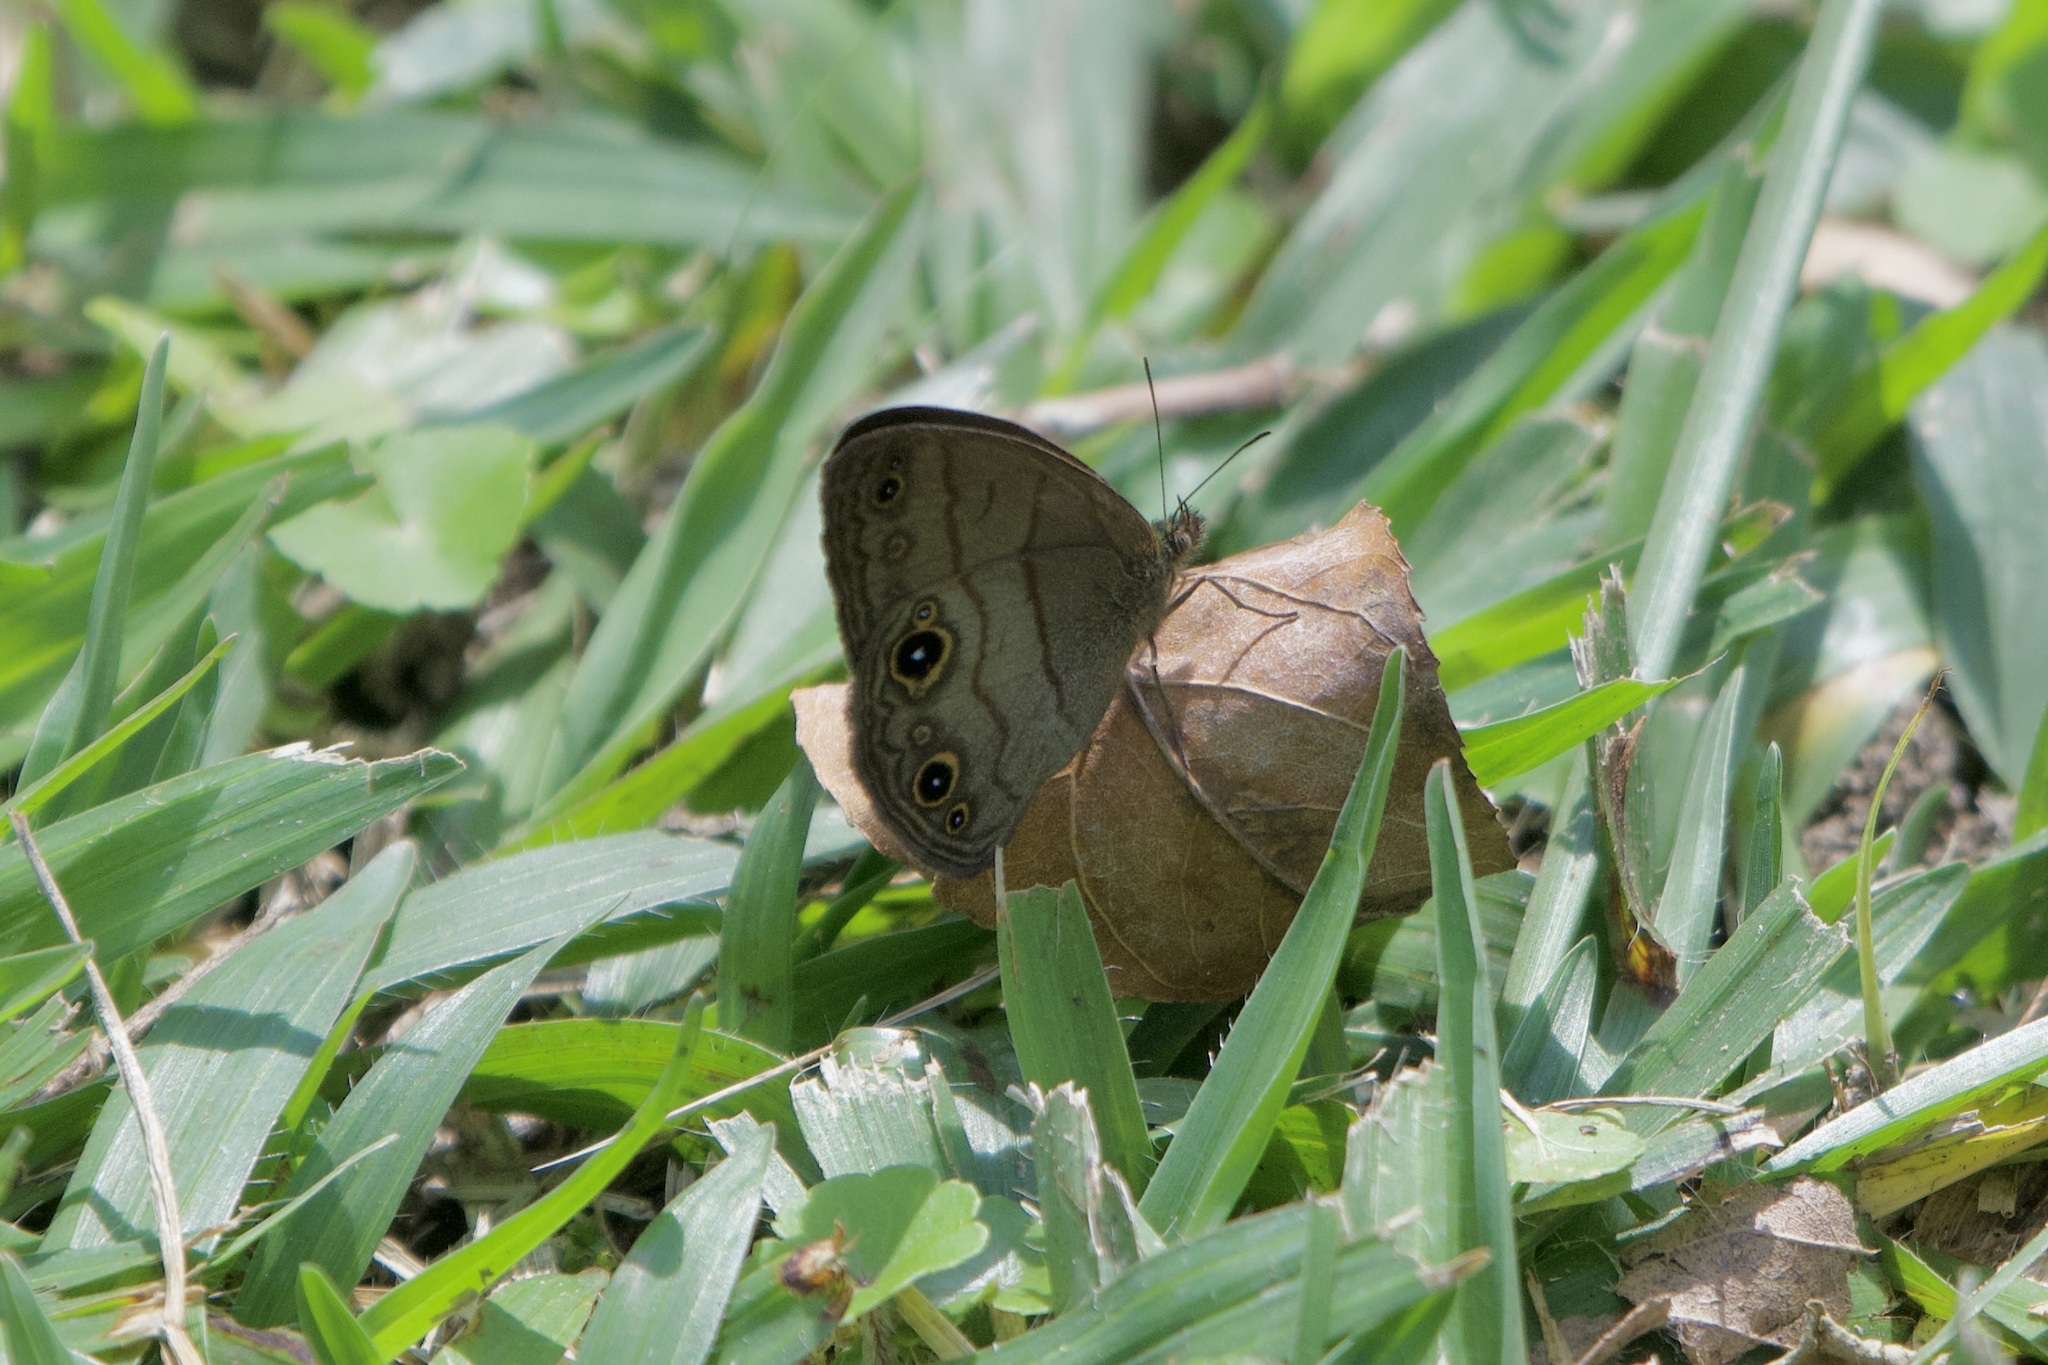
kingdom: Animalia
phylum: Arthropoda
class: Insecta
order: Lepidoptera
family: Nymphalidae
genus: Hermeuptychia
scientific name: Hermeuptychia harmonia
